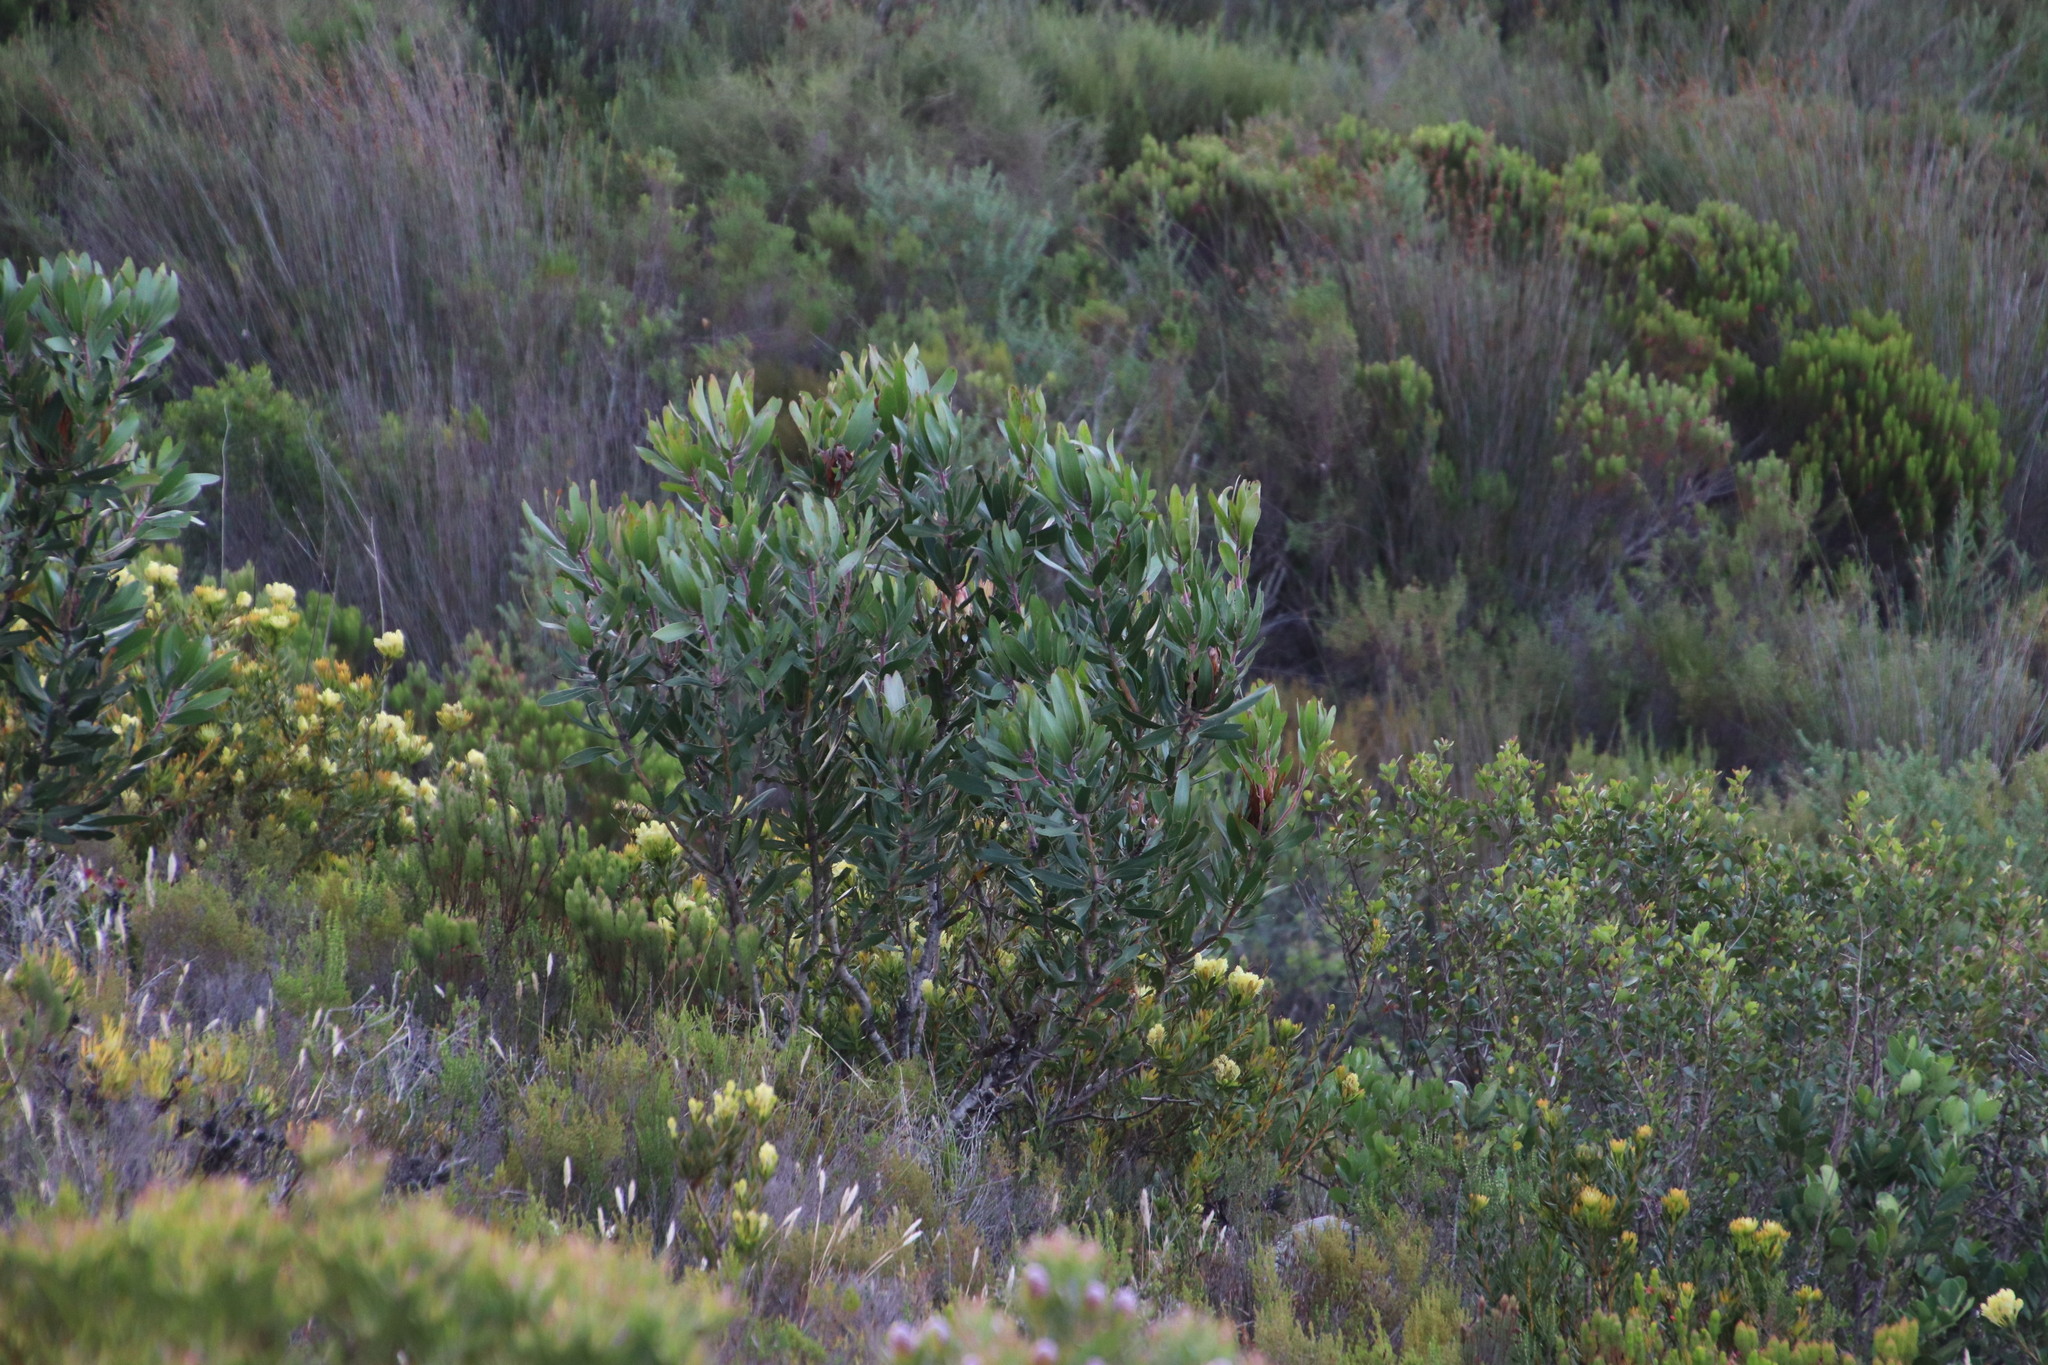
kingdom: Plantae
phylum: Tracheophyta
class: Magnoliopsida
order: Proteales
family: Proteaceae
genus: Protea
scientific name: Protea obtusifolia
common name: Bredasdorp sugarbush
